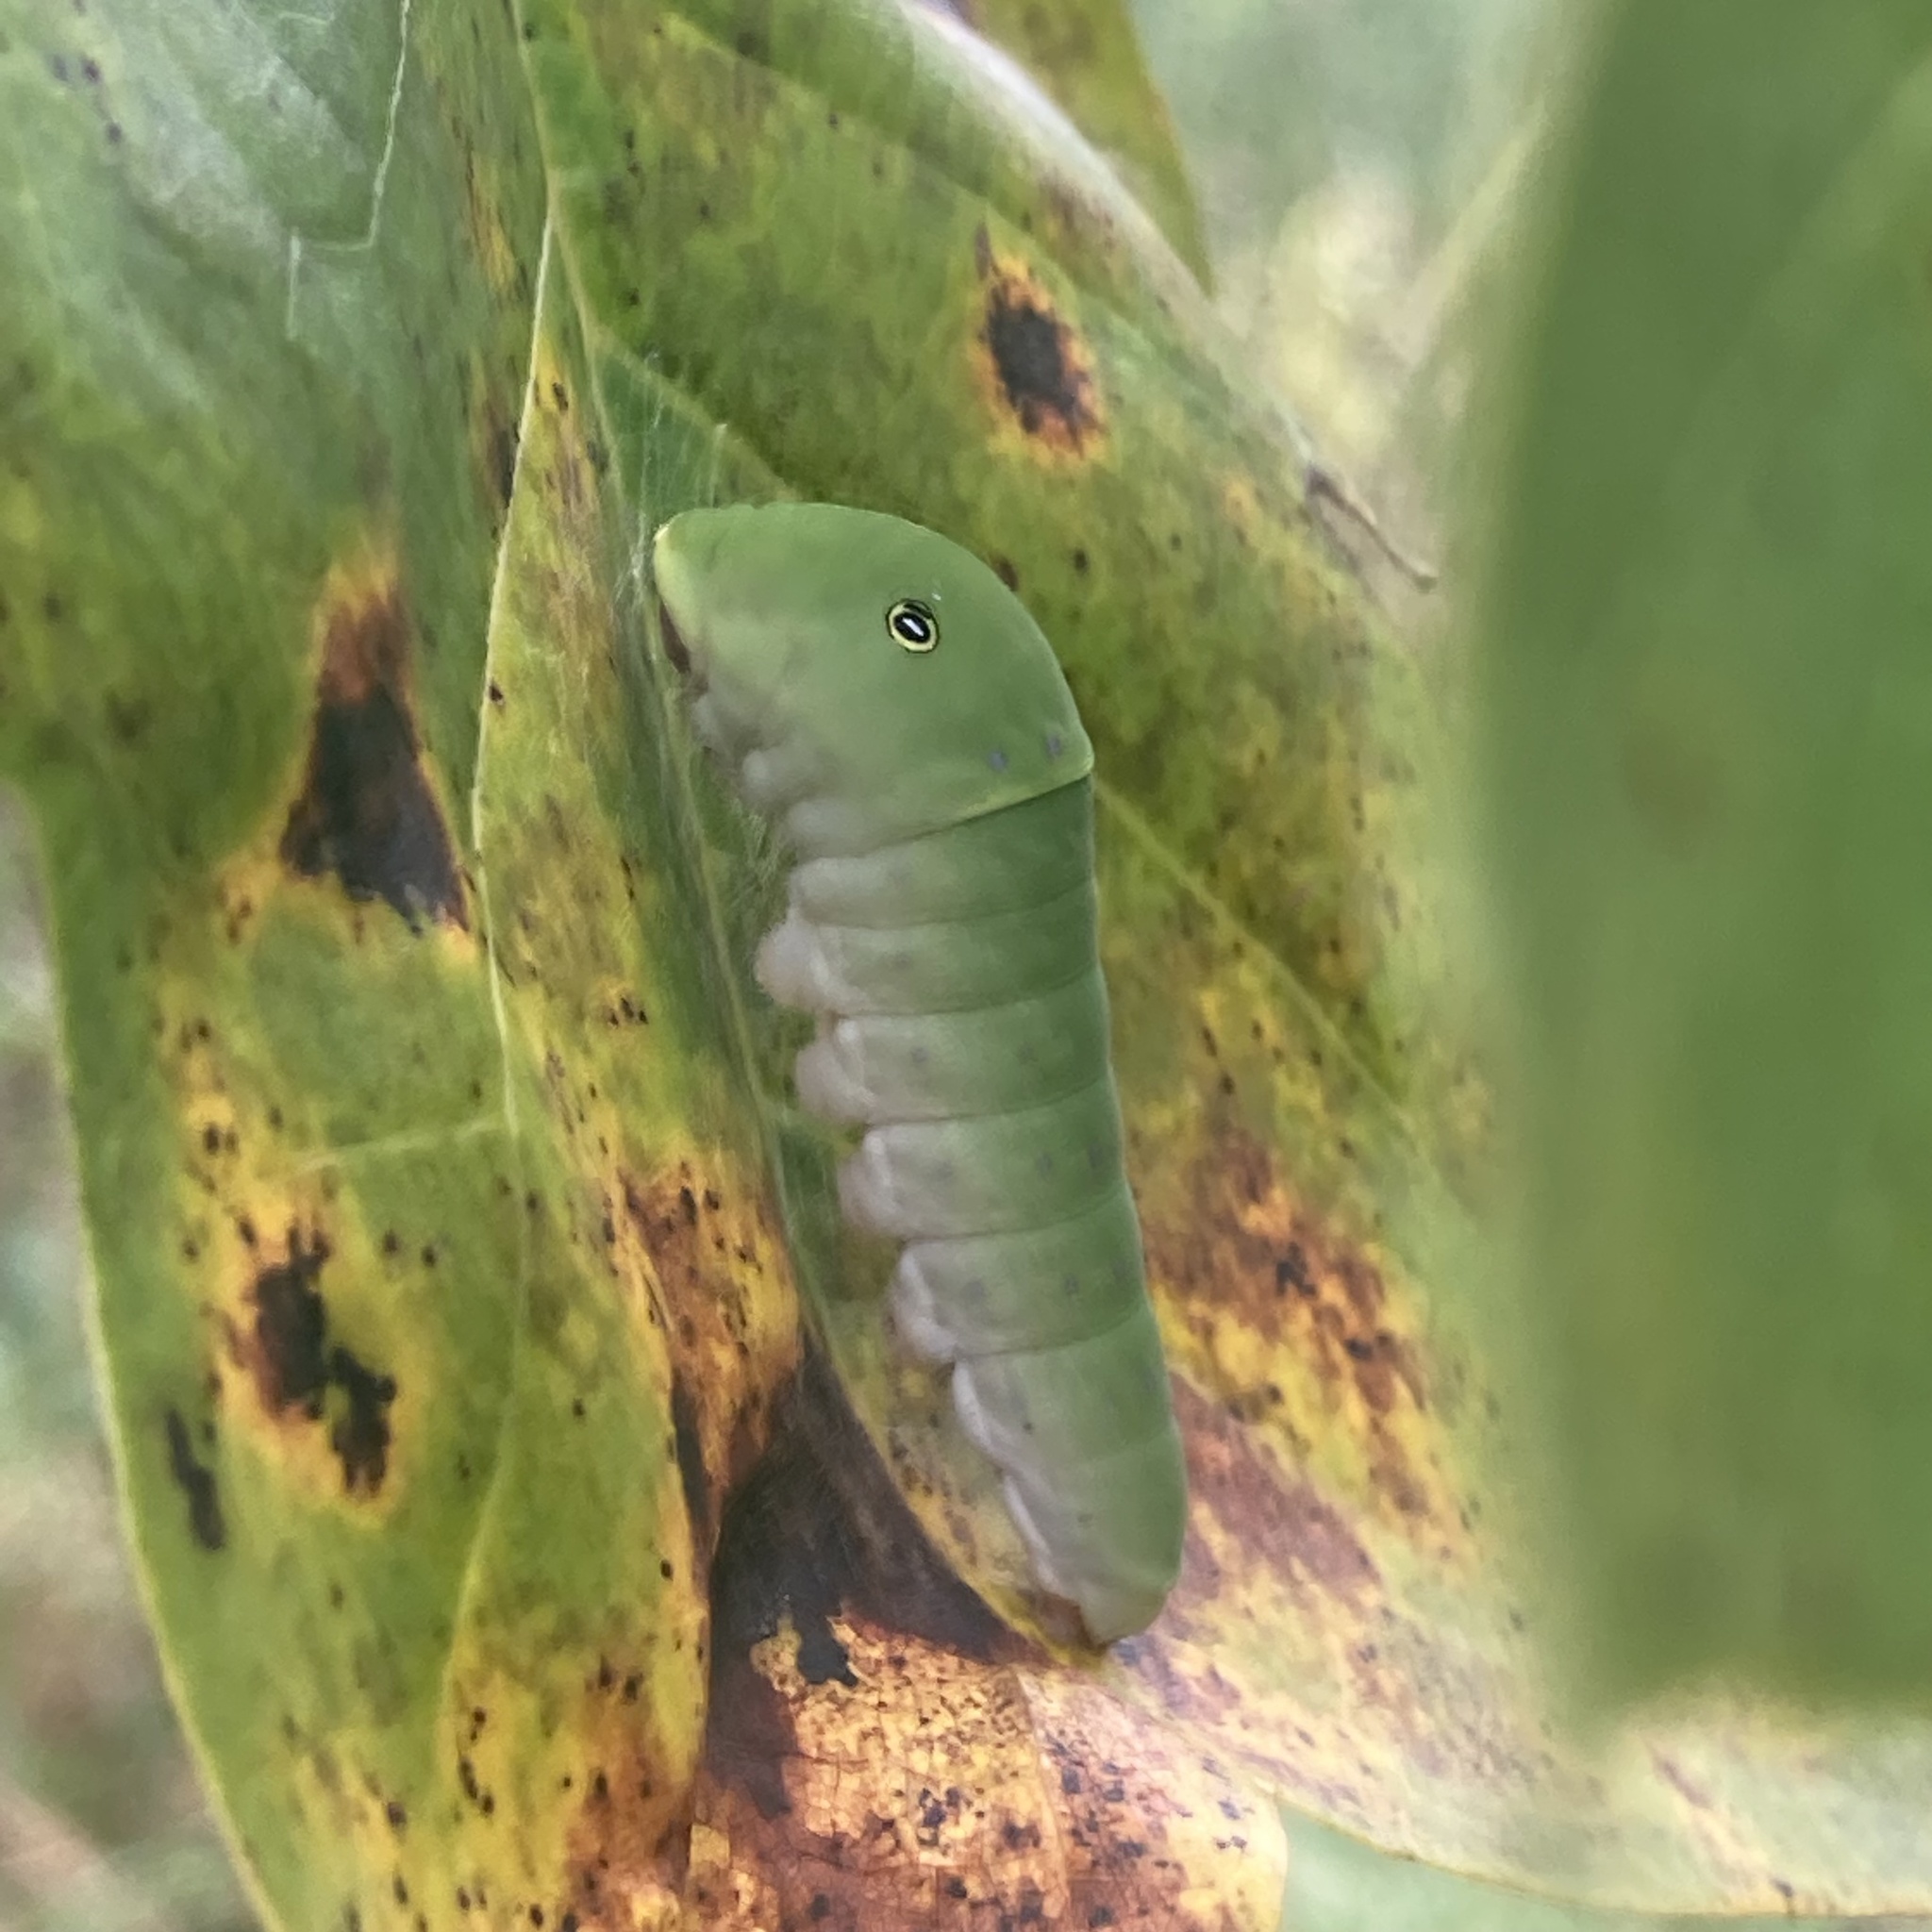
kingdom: Animalia
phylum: Arthropoda
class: Insecta
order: Lepidoptera
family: Papilionidae
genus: Papilio
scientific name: Papilio glaucus
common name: Tiger swallowtail
